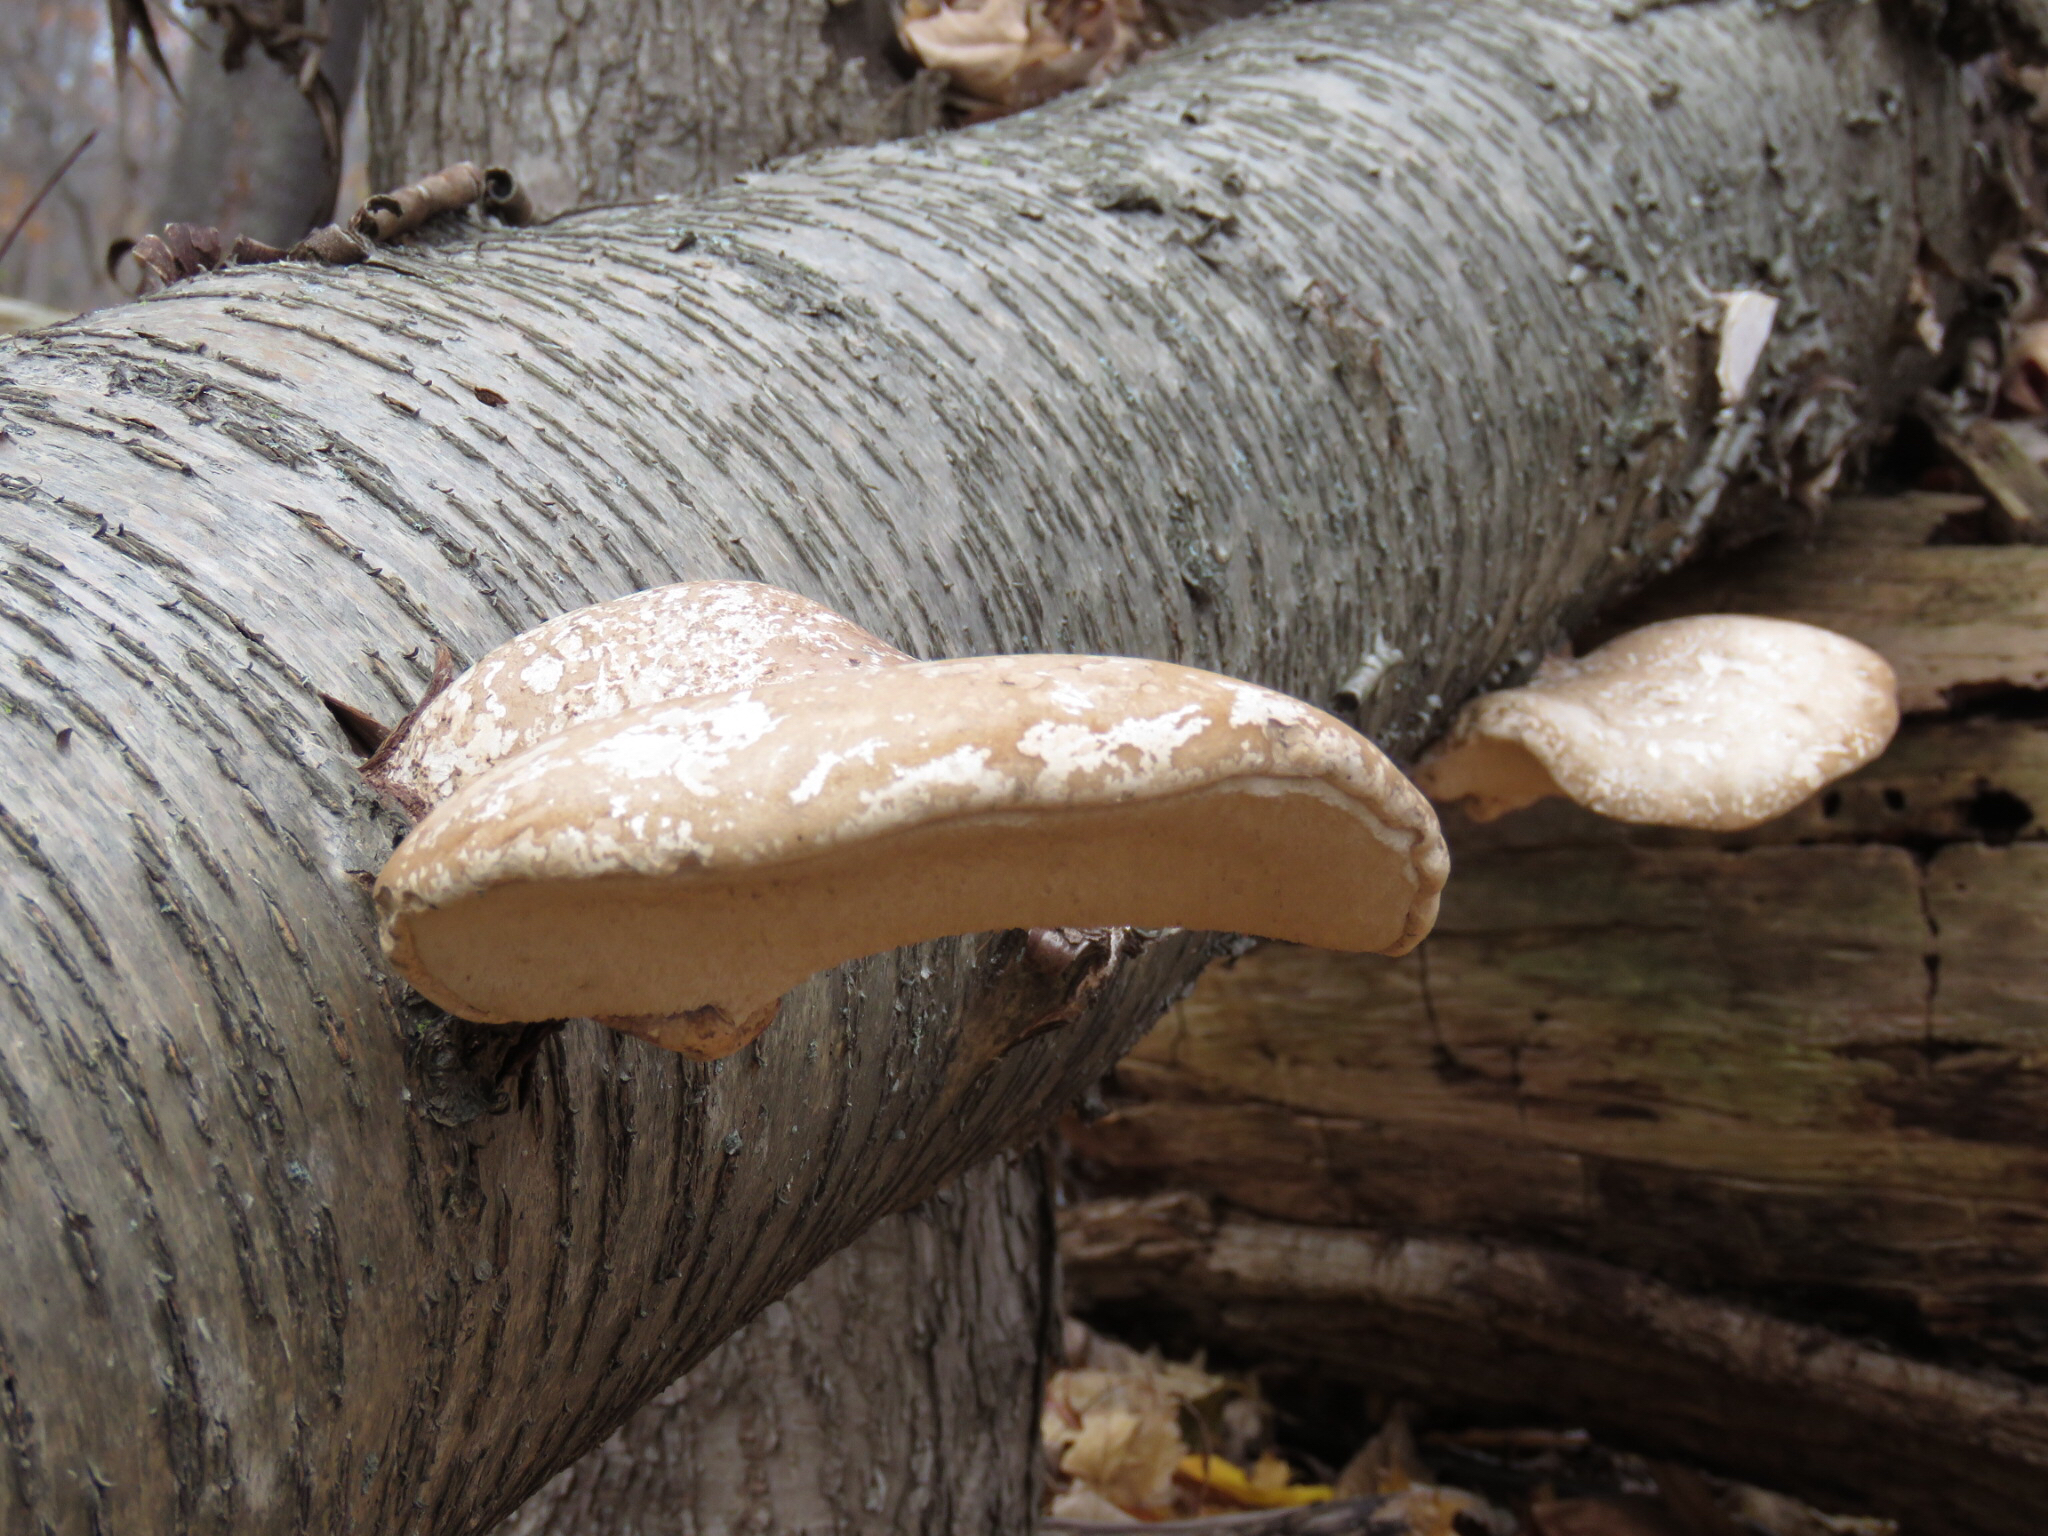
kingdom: Fungi
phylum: Basidiomycota
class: Agaricomycetes
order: Polyporales
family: Fomitopsidaceae
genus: Fomitopsis
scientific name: Fomitopsis betulina
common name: Birch polypore
